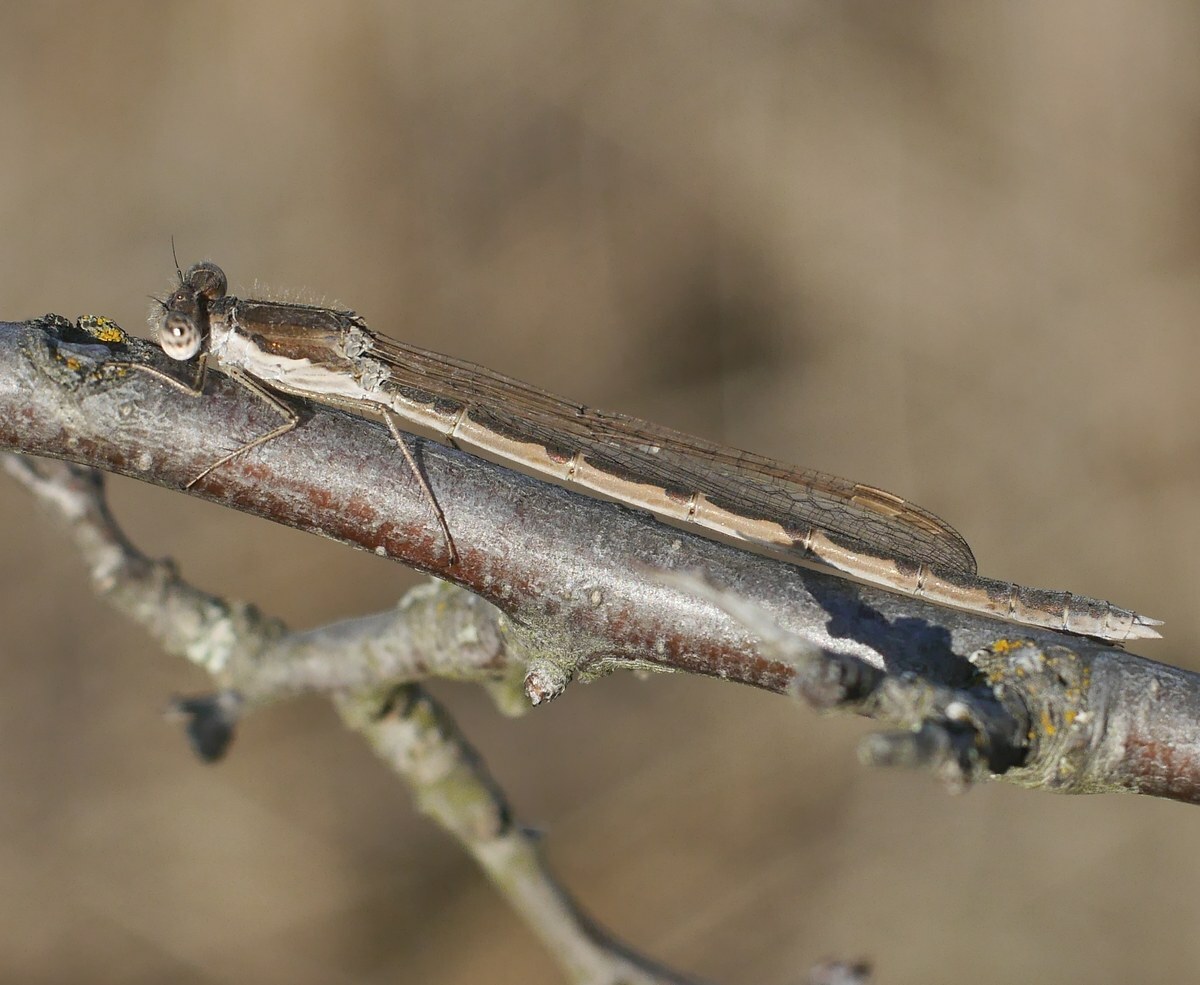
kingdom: Animalia
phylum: Arthropoda
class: Insecta
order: Odonata
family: Lestidae
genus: Sympecma
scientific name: Sympecma fusca
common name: Common winter damsel
